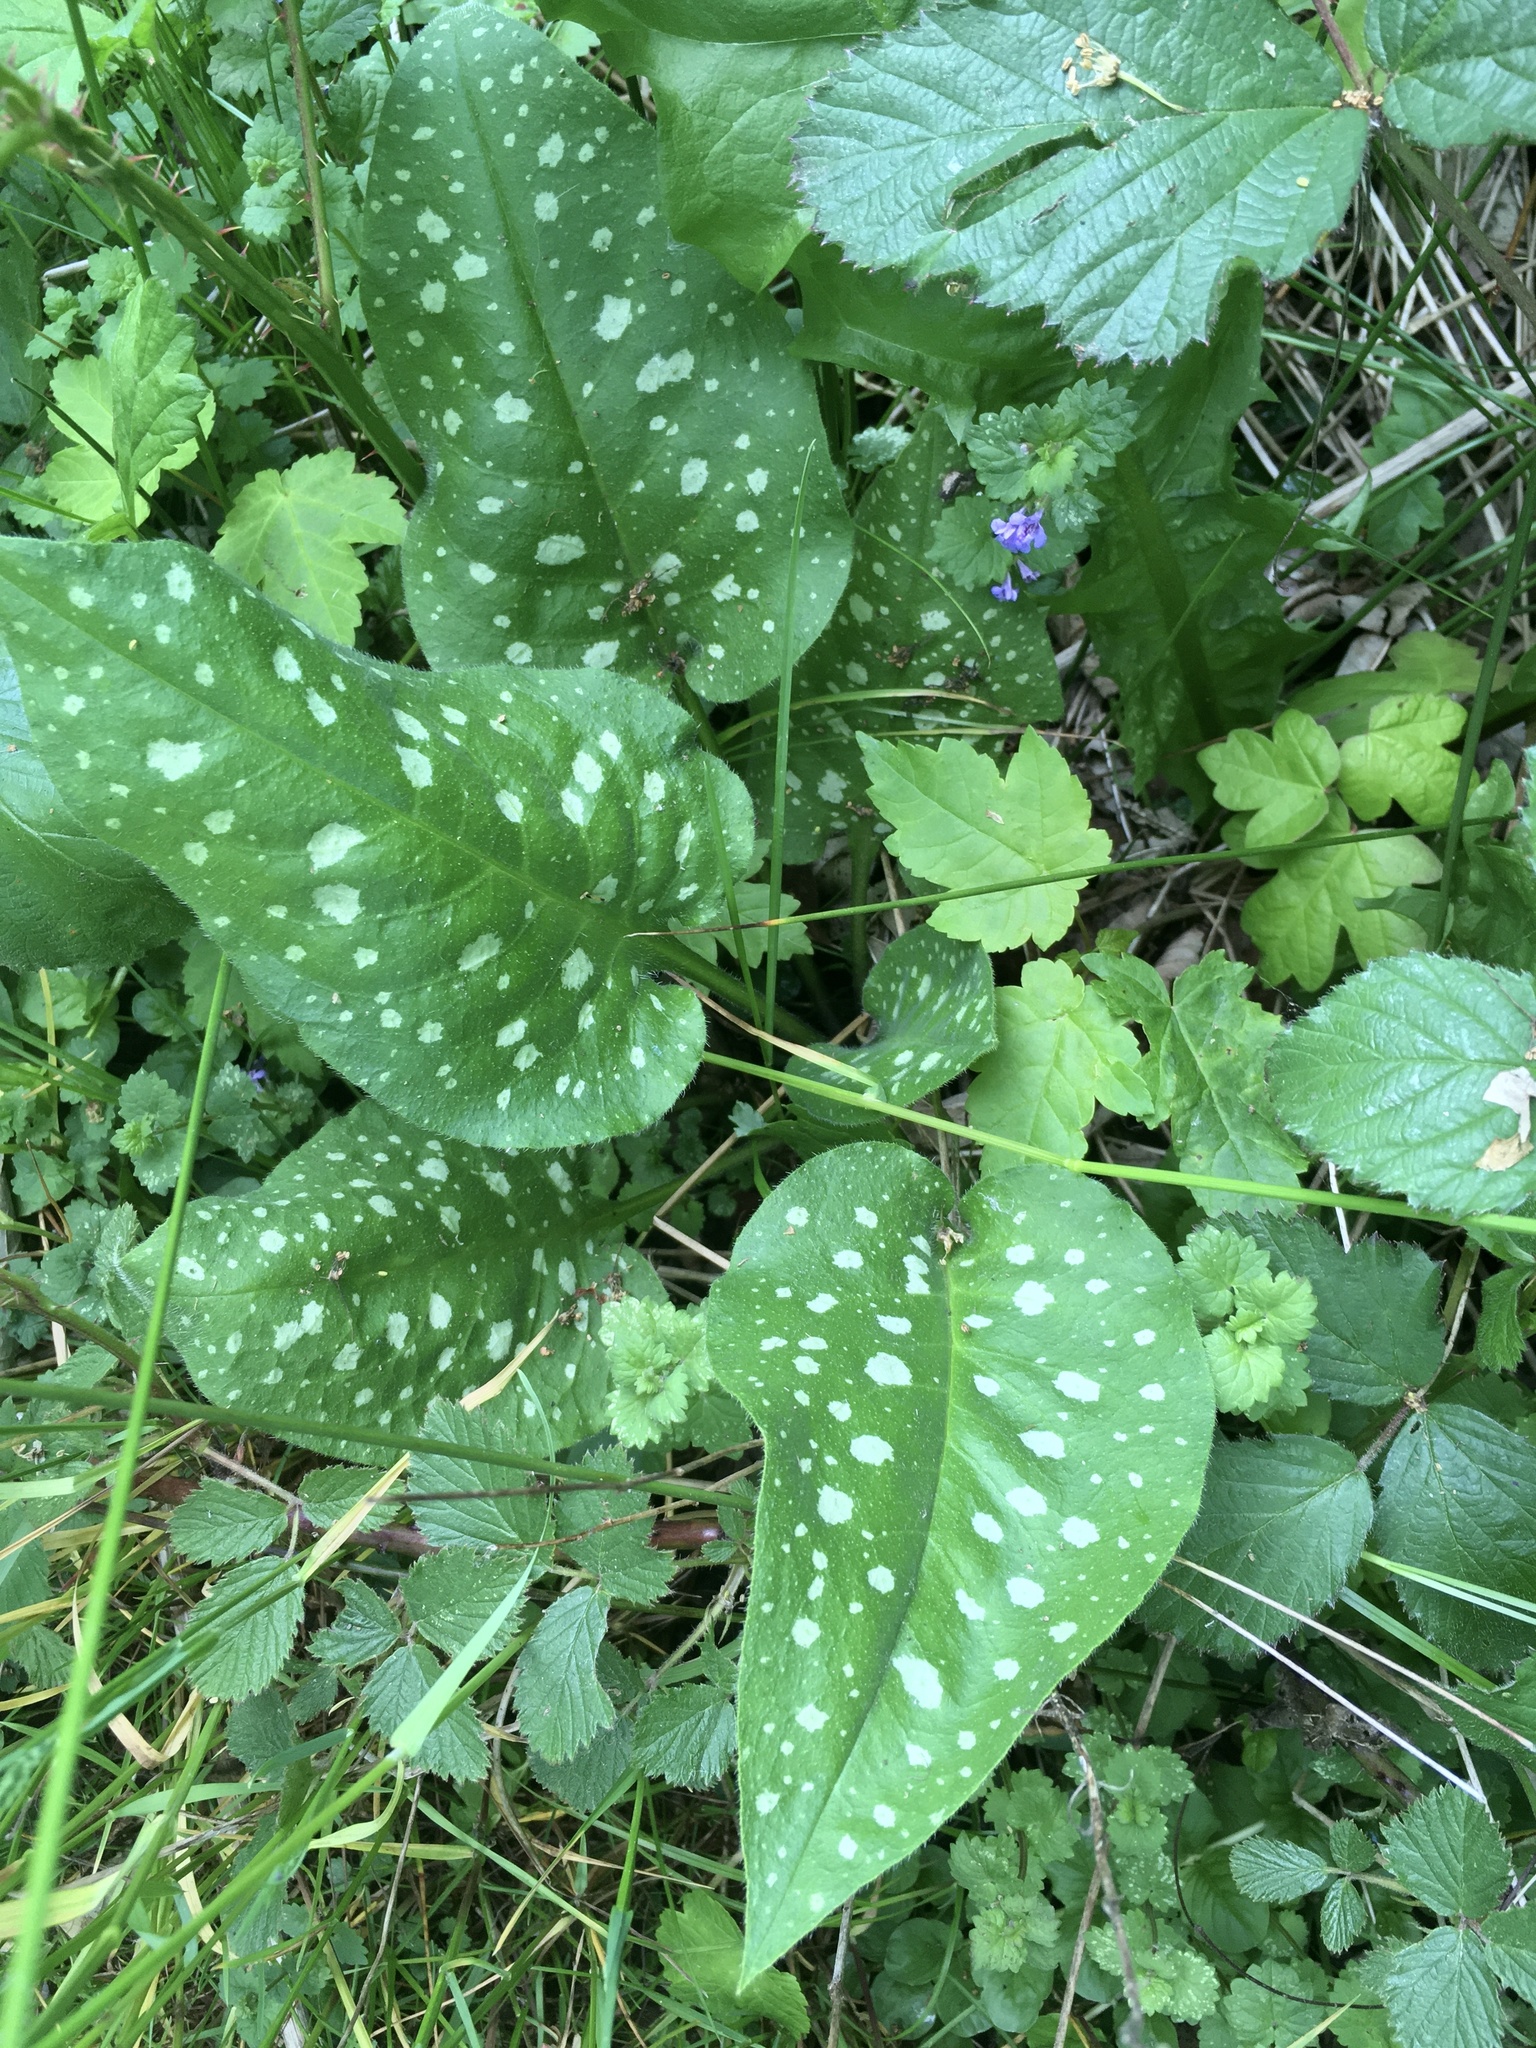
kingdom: Plantae
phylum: Tracheophyta
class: Magnoliopsida
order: Boraginales
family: Boraginaceae
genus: Pulmonaria
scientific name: Pulmonaria officinalis
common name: Lungwort
